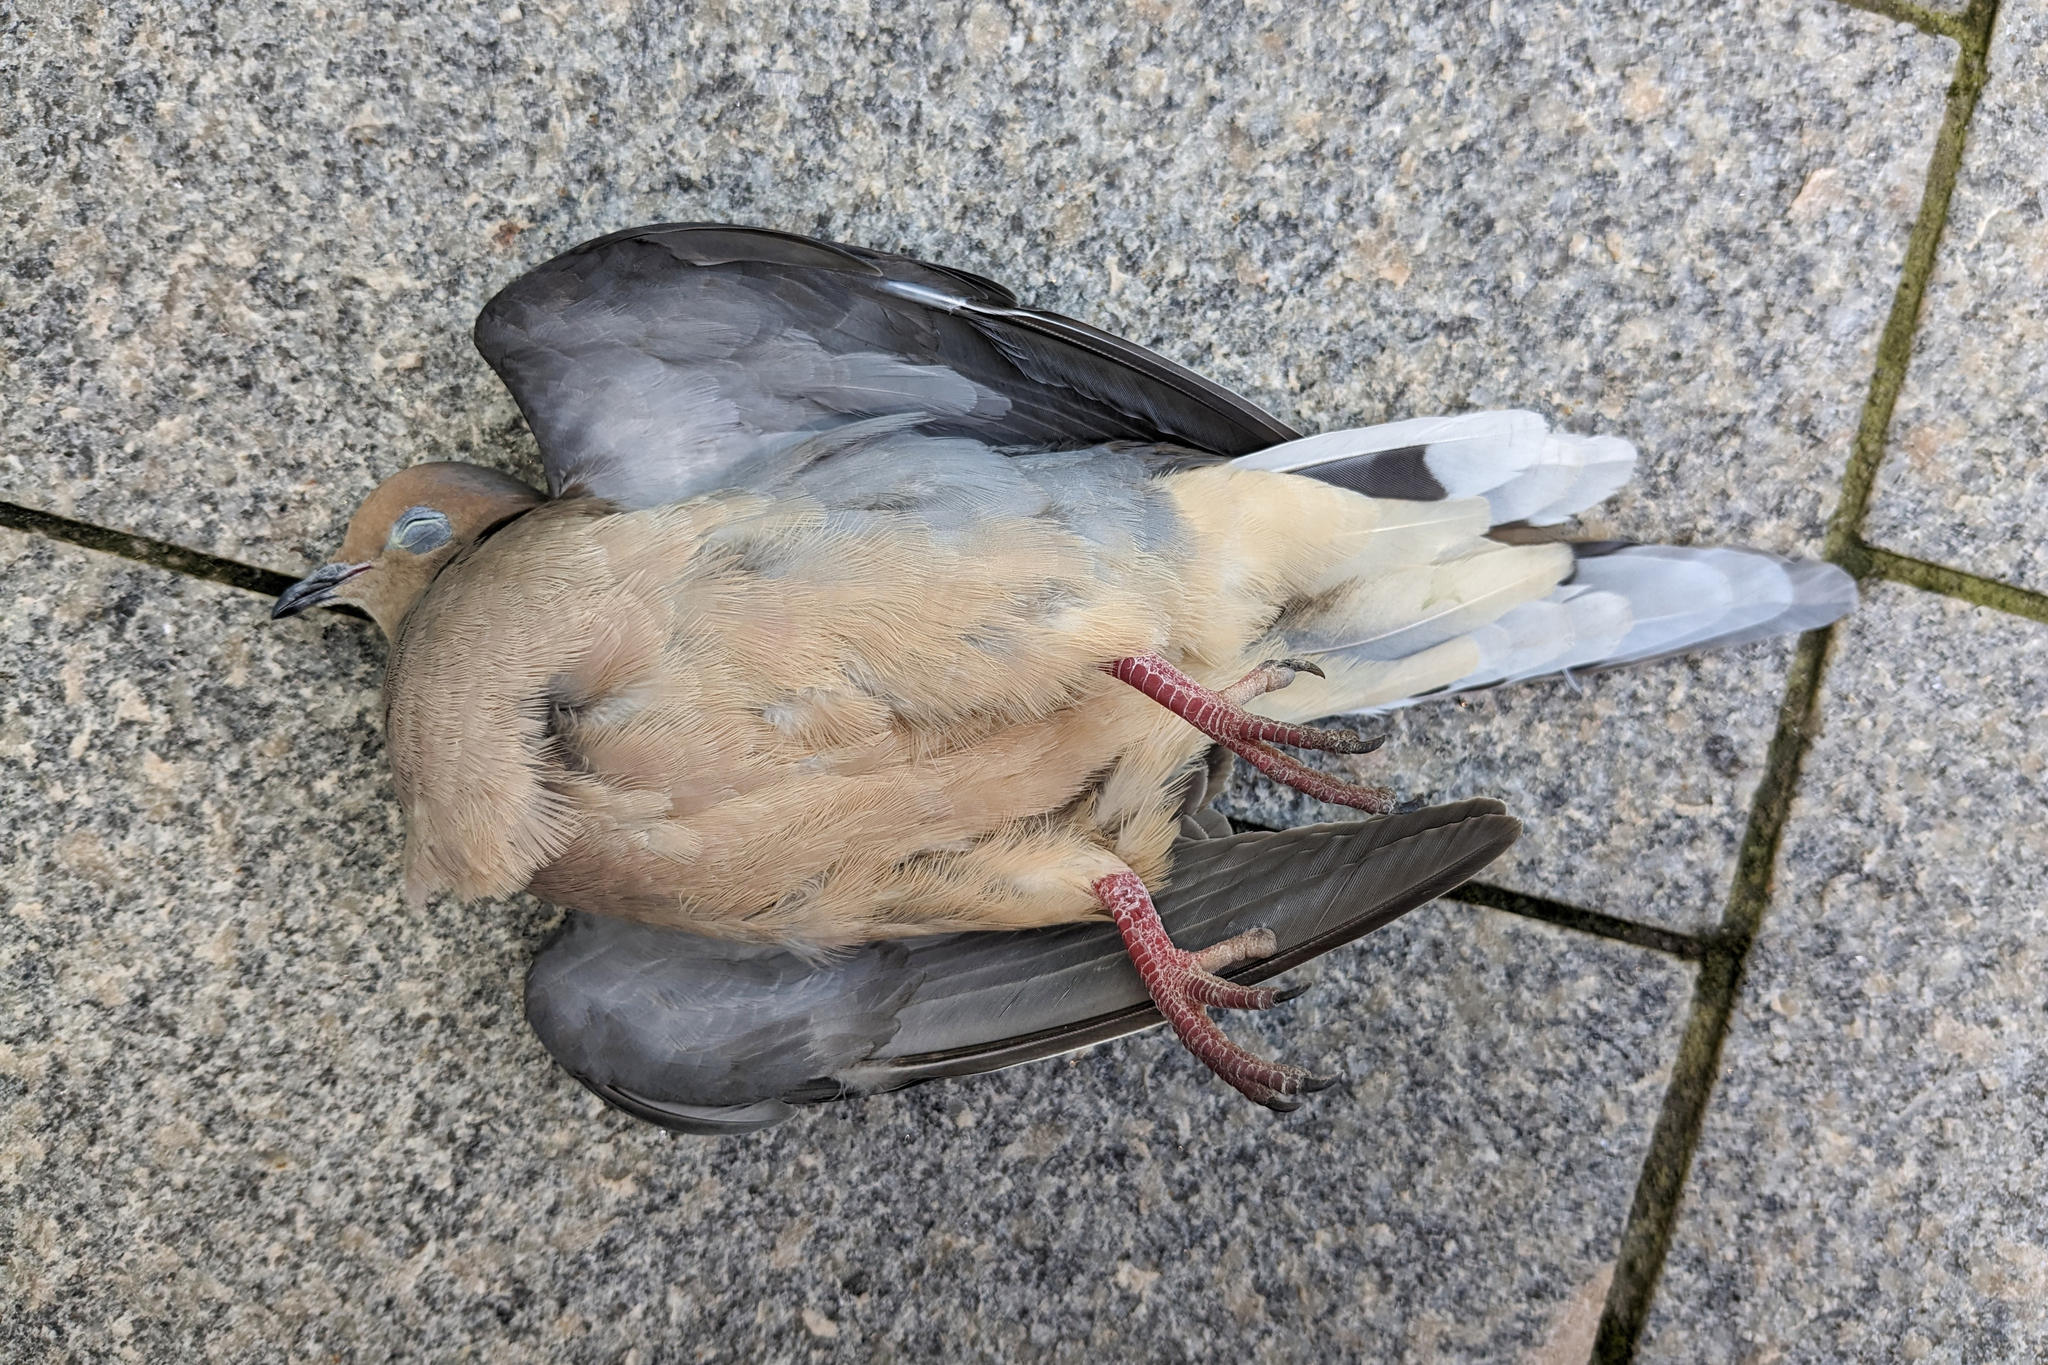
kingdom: Animalia
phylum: Chordata
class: Aves
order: Columbiformes
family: Columbidae
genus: Zenaida
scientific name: Zenaida macroura
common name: Mourning dove
